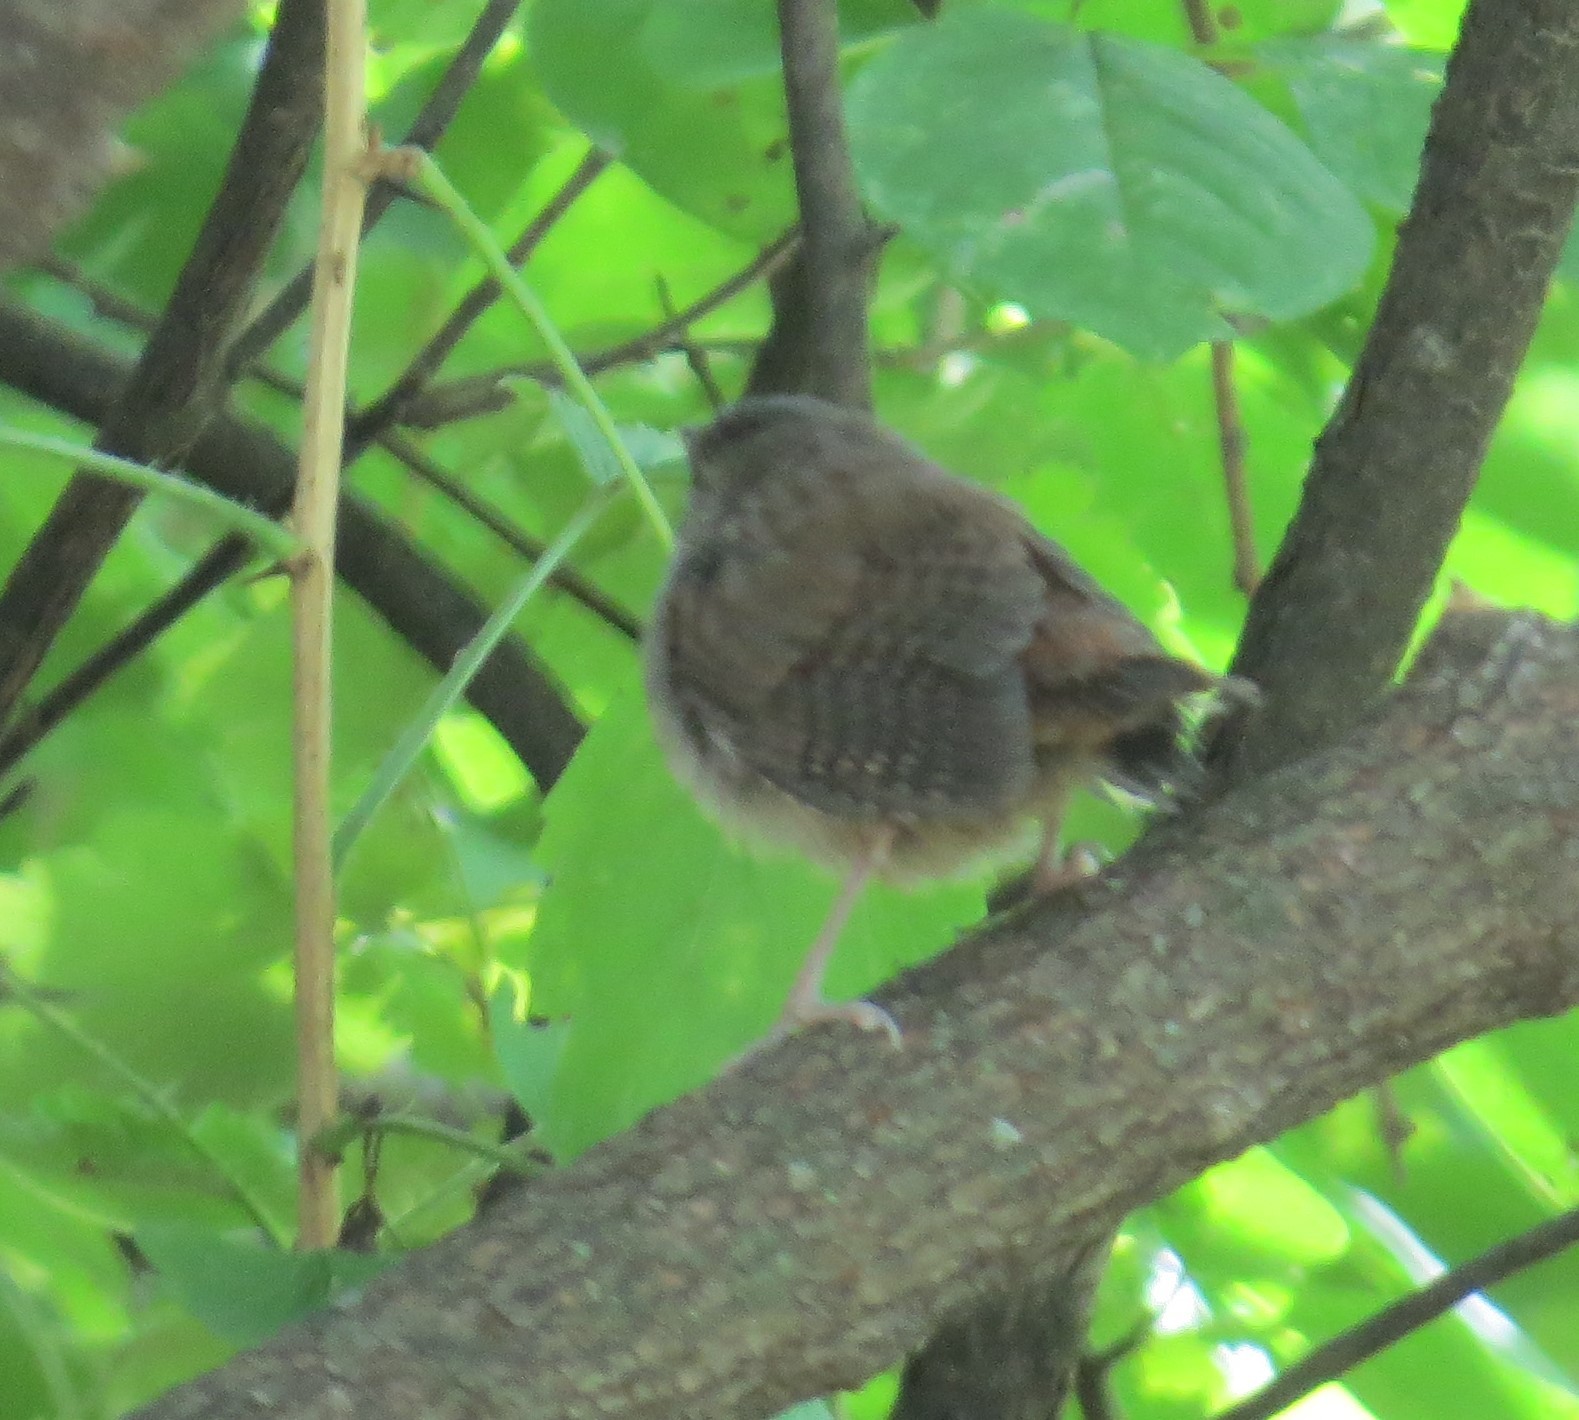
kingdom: Animalia
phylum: Chordata
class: Aves
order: Passeriformes
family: Troglodytidae
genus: Troglodytes
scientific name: Troglodytes aedon
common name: House wren
